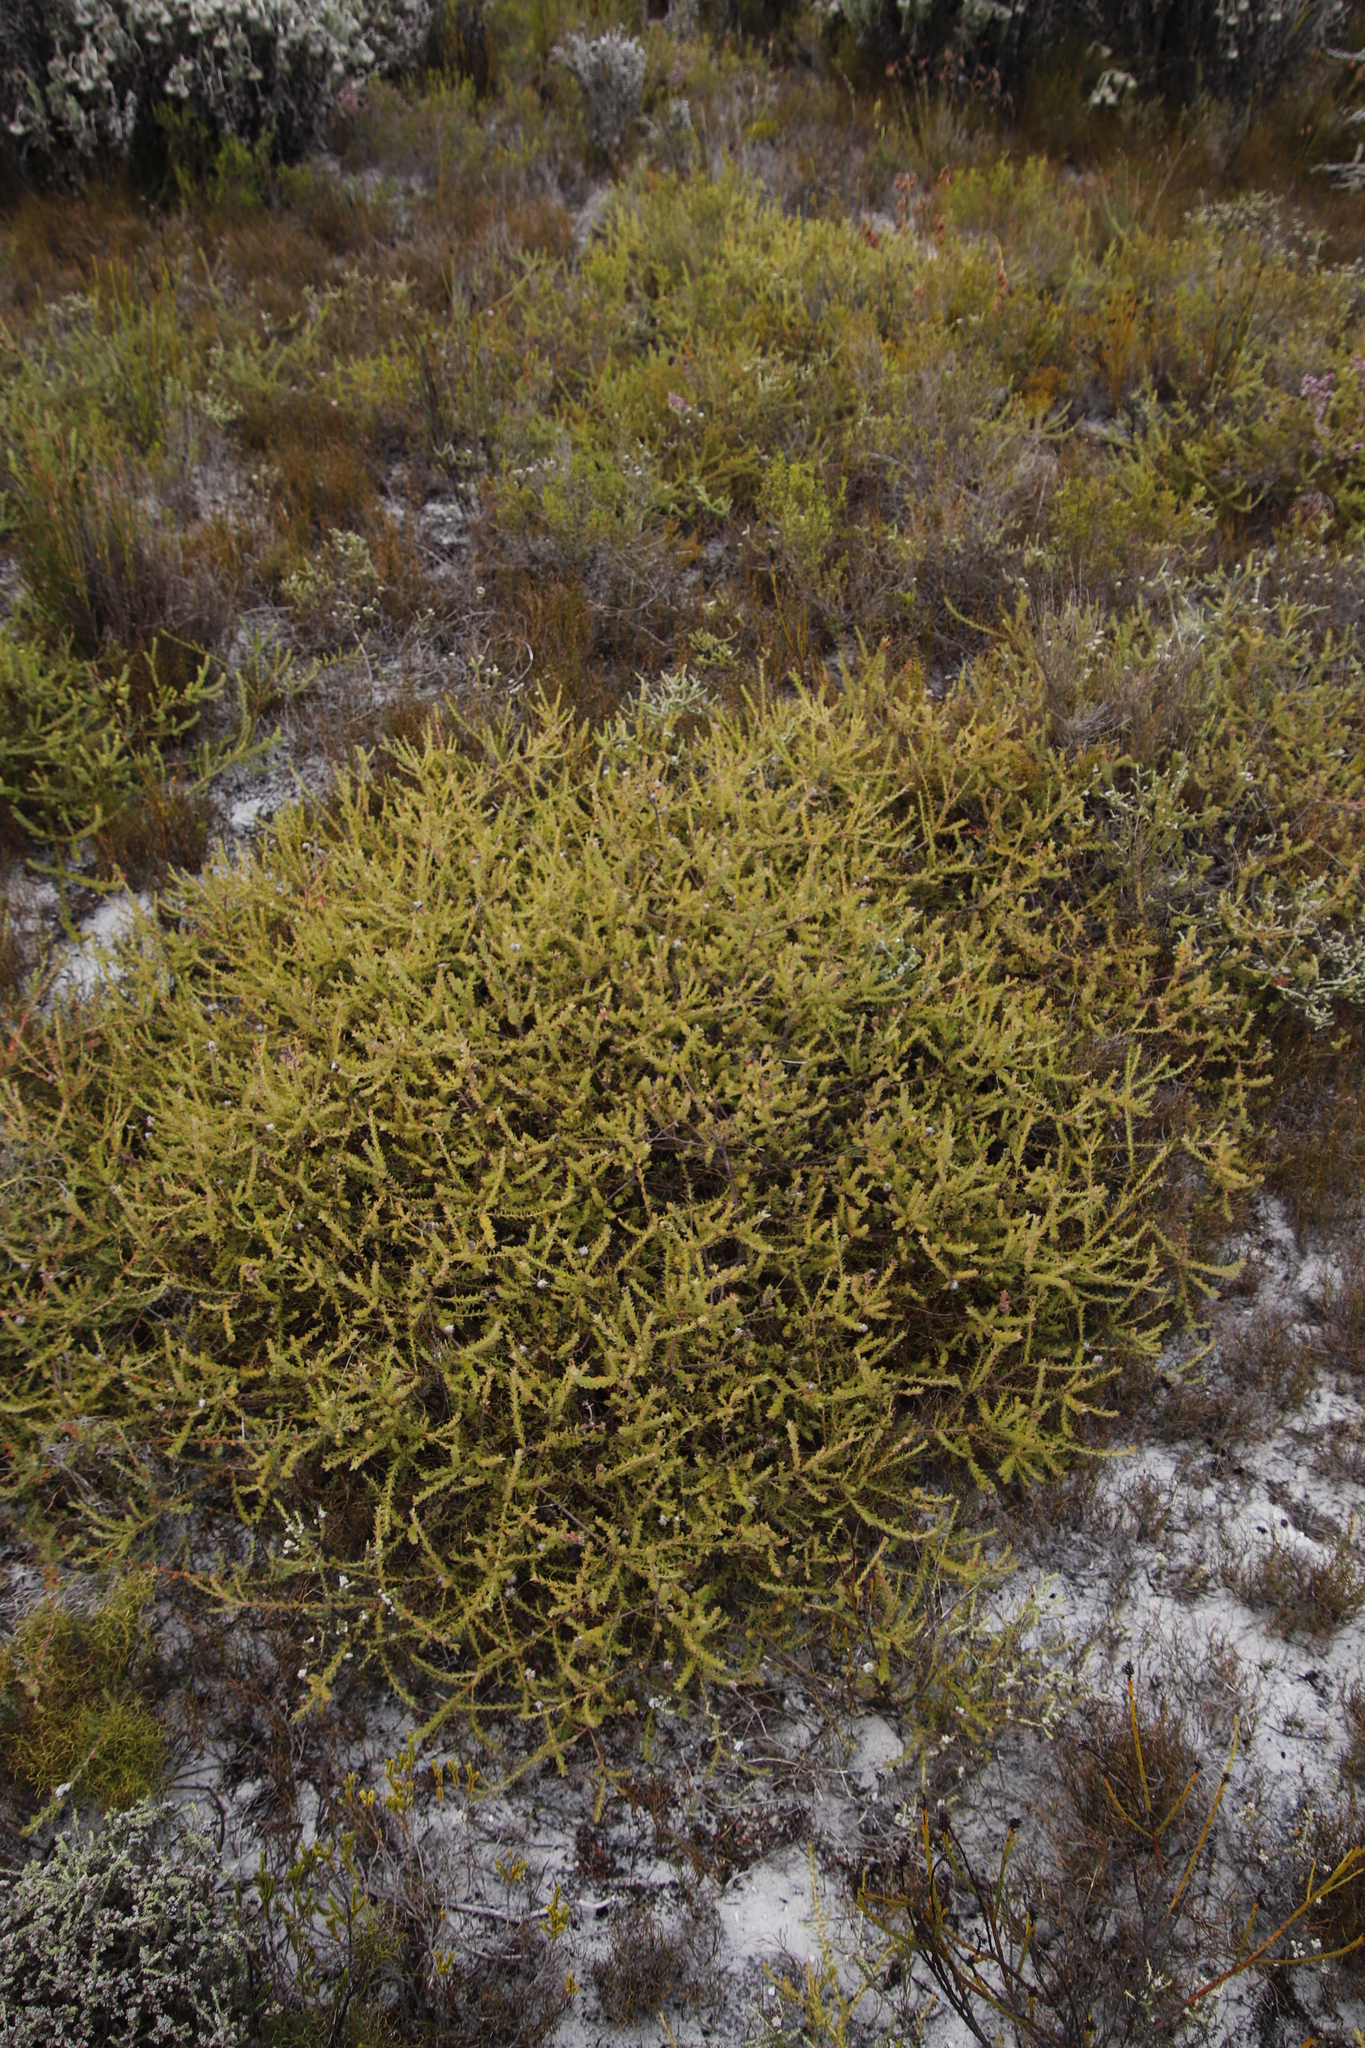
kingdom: Plantae
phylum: Tracheophyta
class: Magnoliopsida
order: Proteales
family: Proteaceae
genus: Diastella
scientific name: Diastella divaricata
